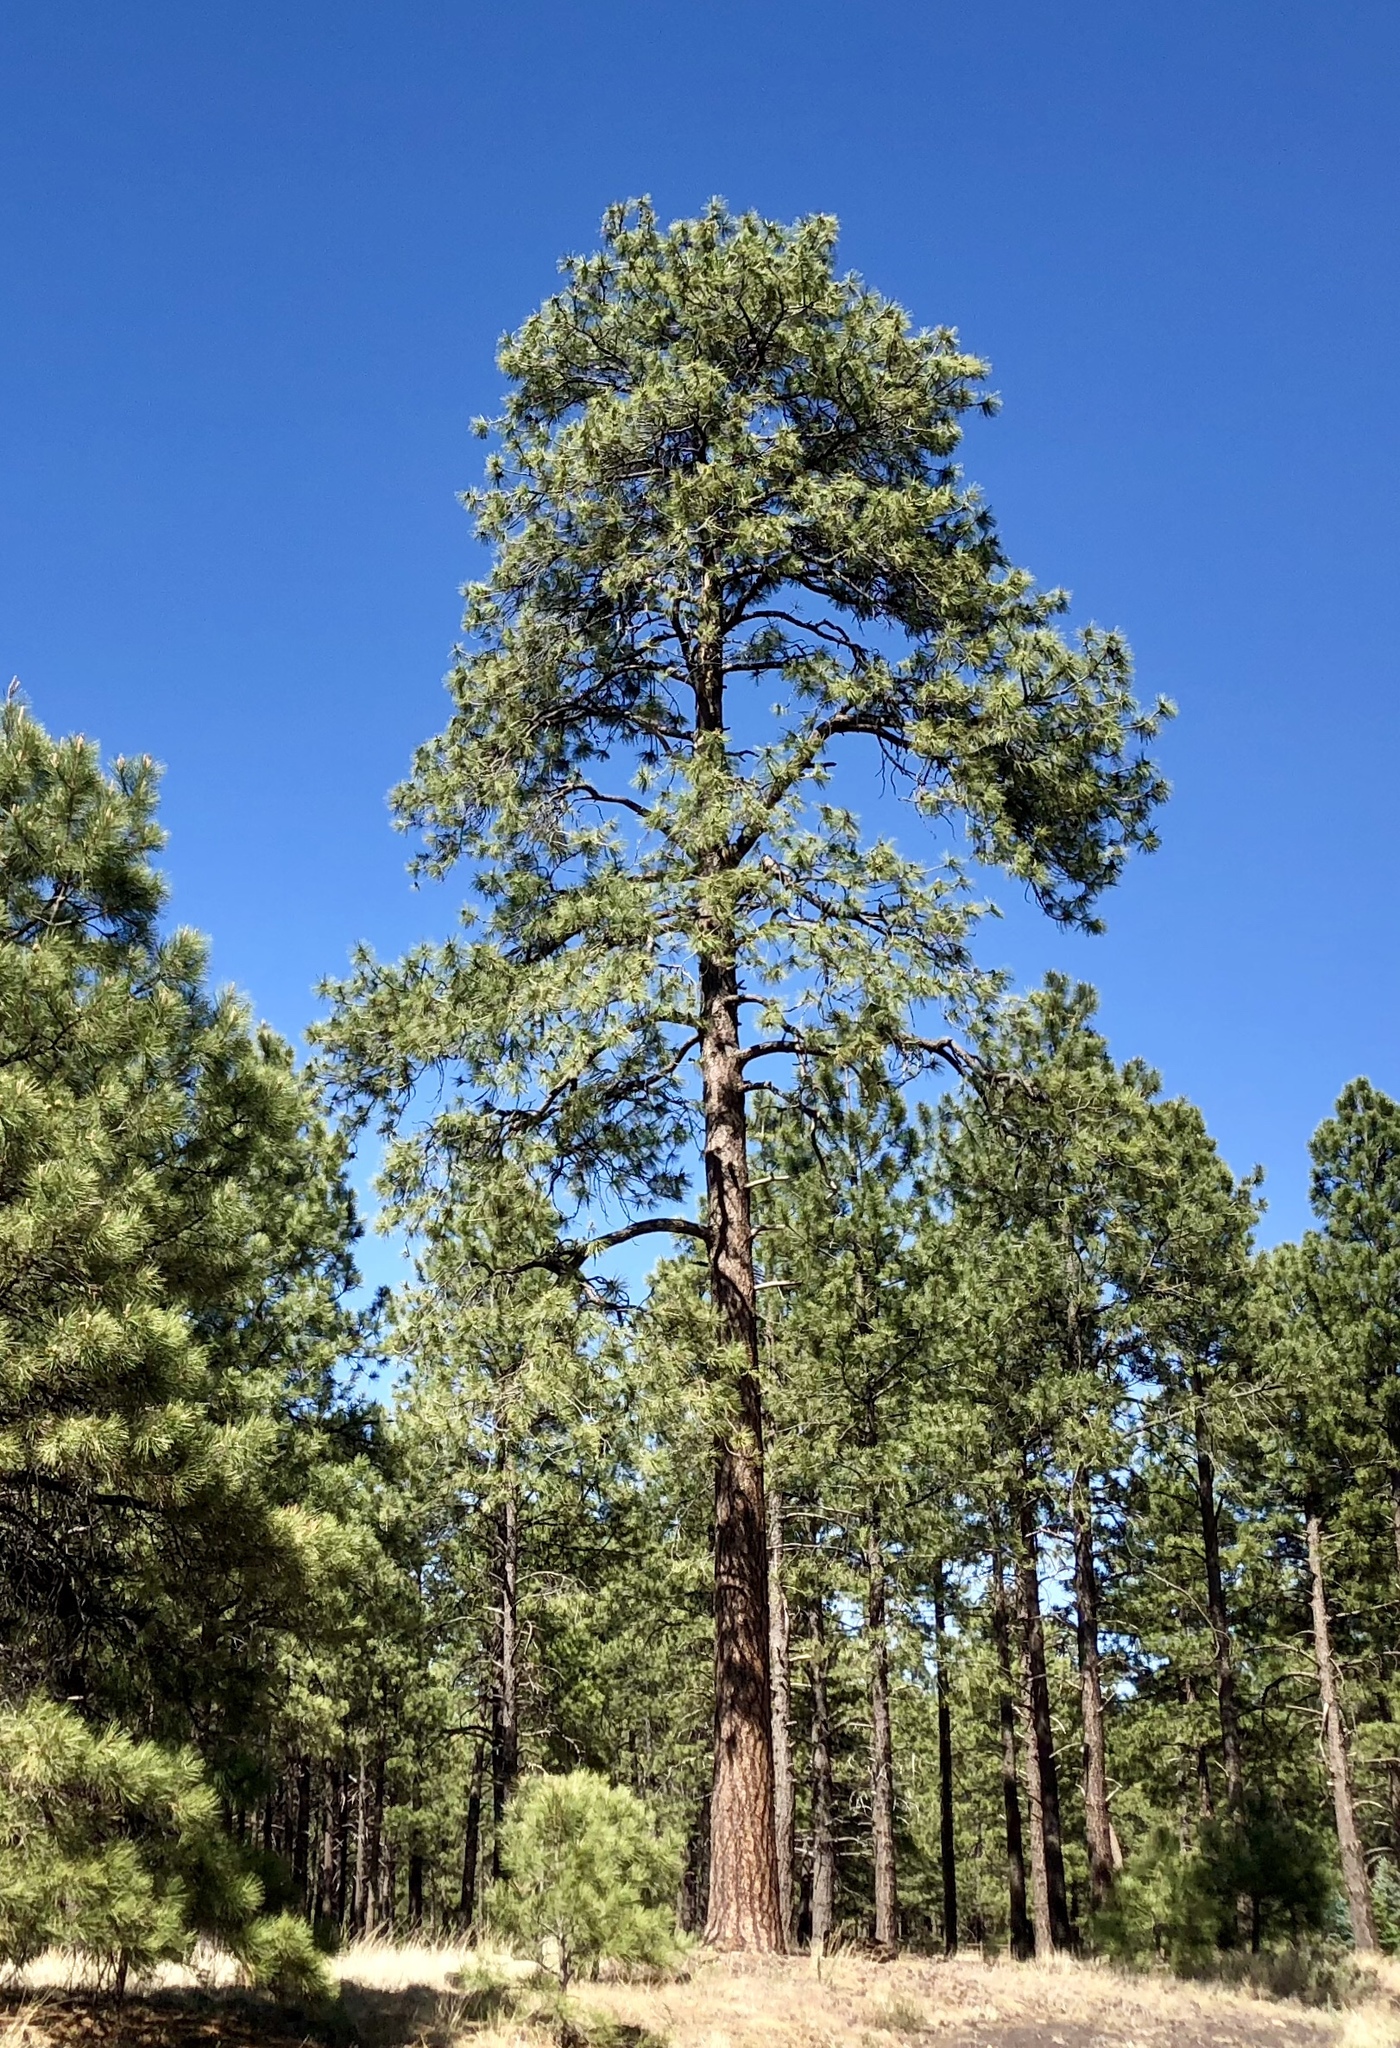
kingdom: Plantae
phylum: Tracheophyta
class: Pinopsida
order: Pinales
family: Pinaceae
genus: Pinus
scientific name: Pinus ponderosa
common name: Western yellow-pine
